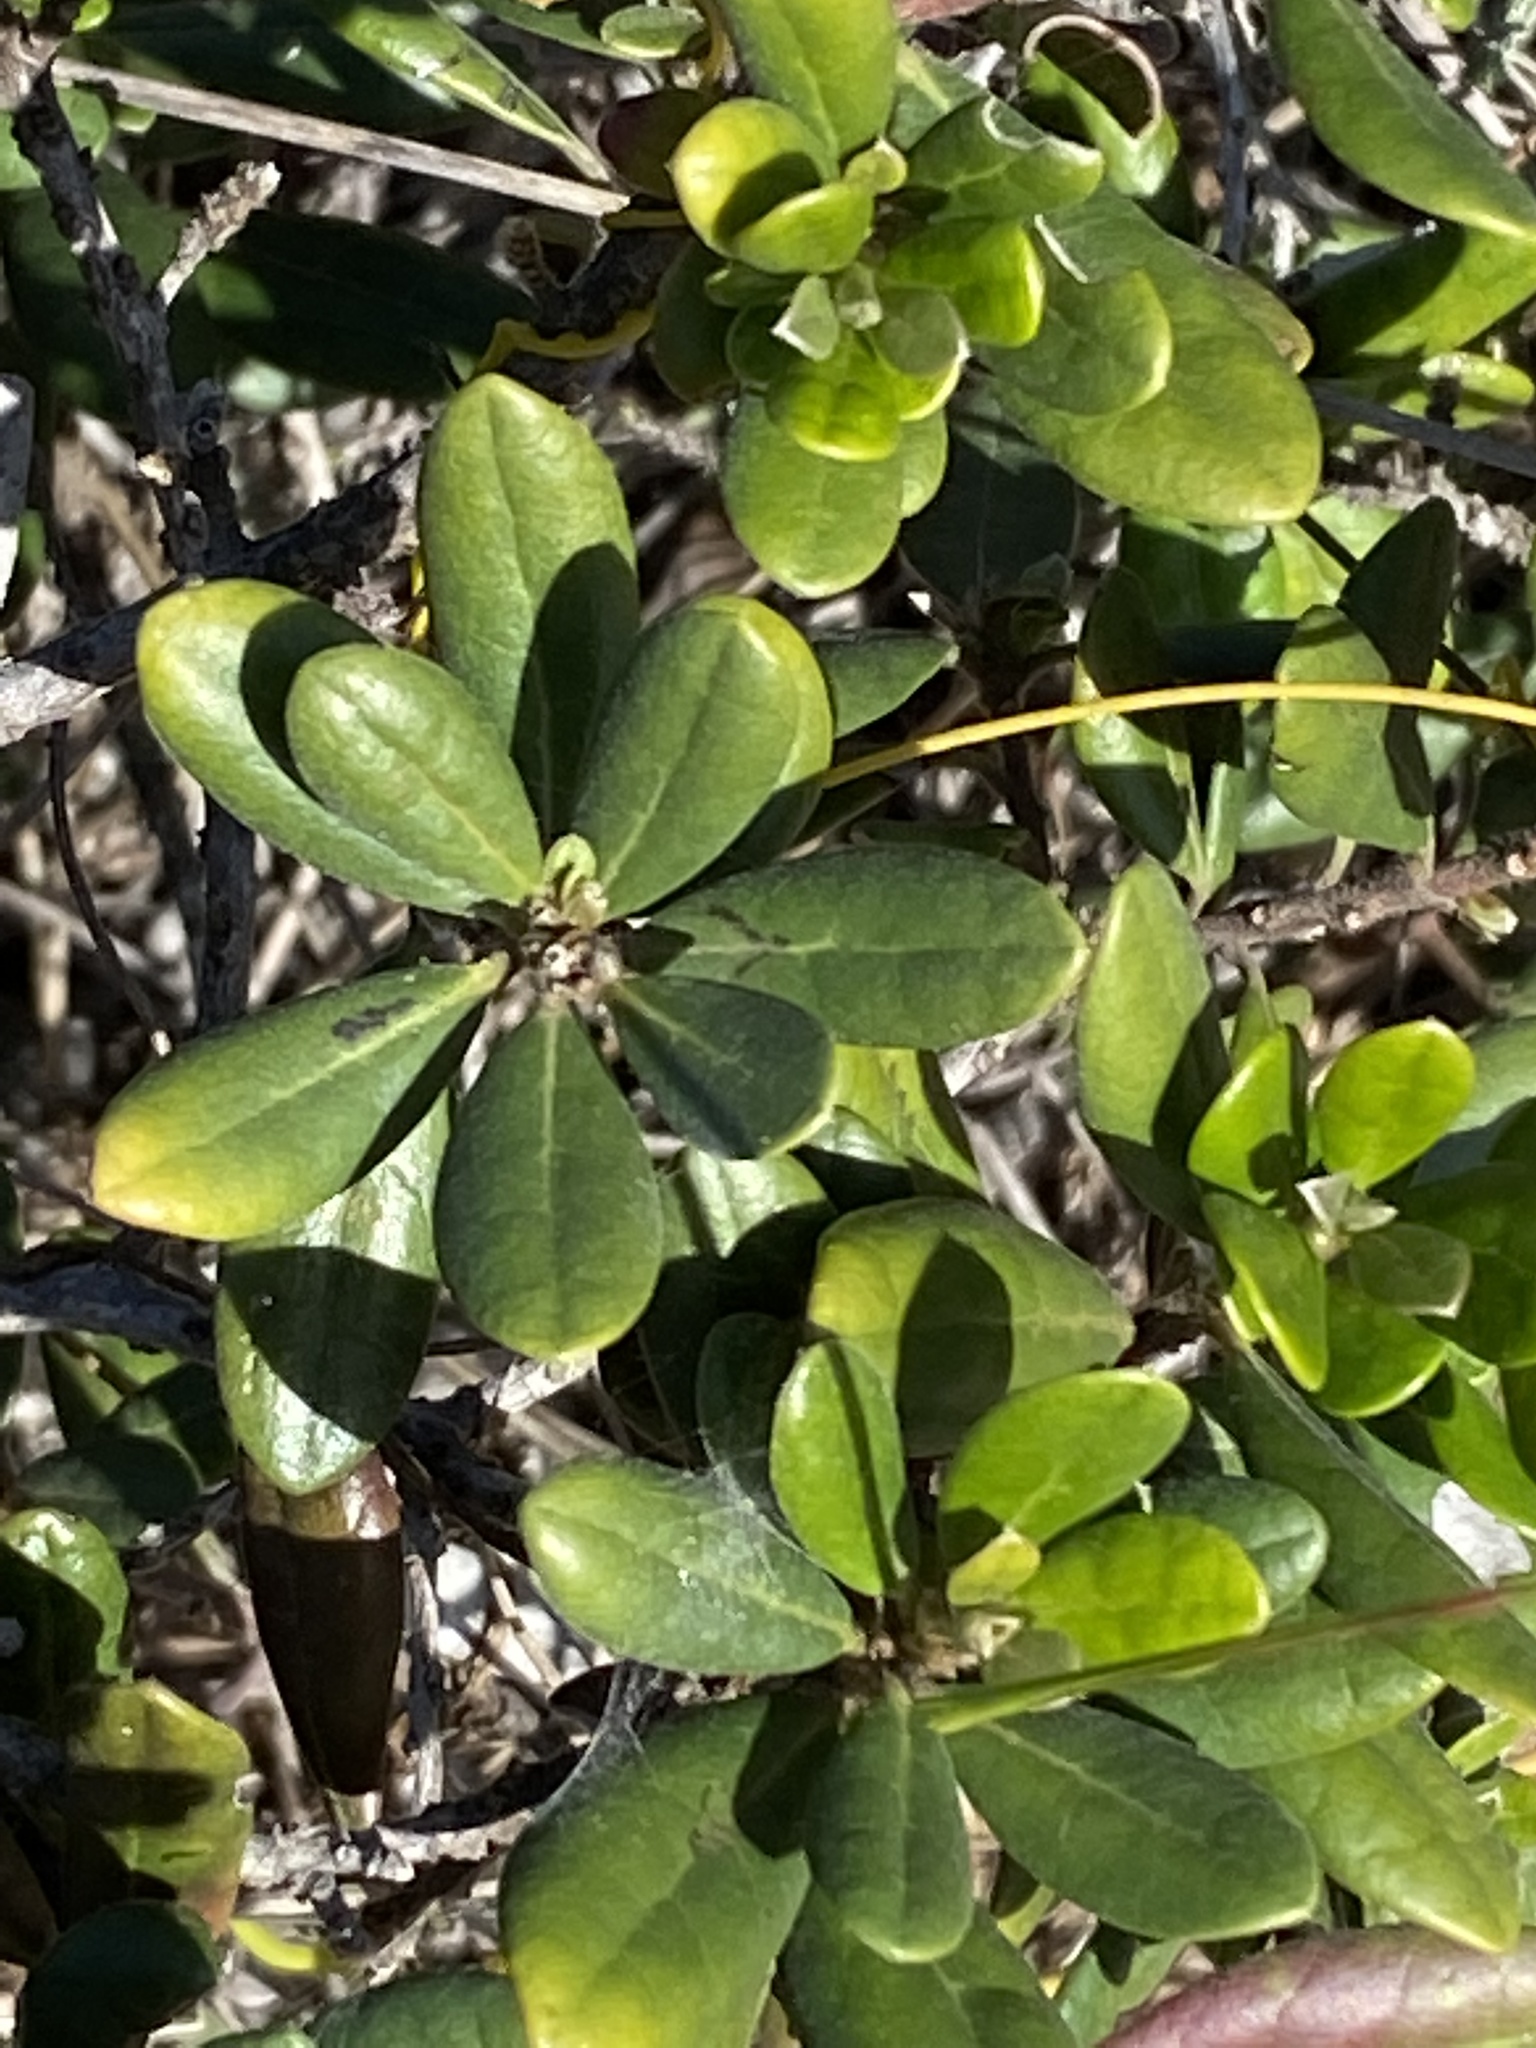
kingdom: Plantae
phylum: Tracheophyta
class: Magnoliopsida
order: Ericales
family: Ebenaceae
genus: Diospyros
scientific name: Diospyros dichrophylla
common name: Common star-apple
